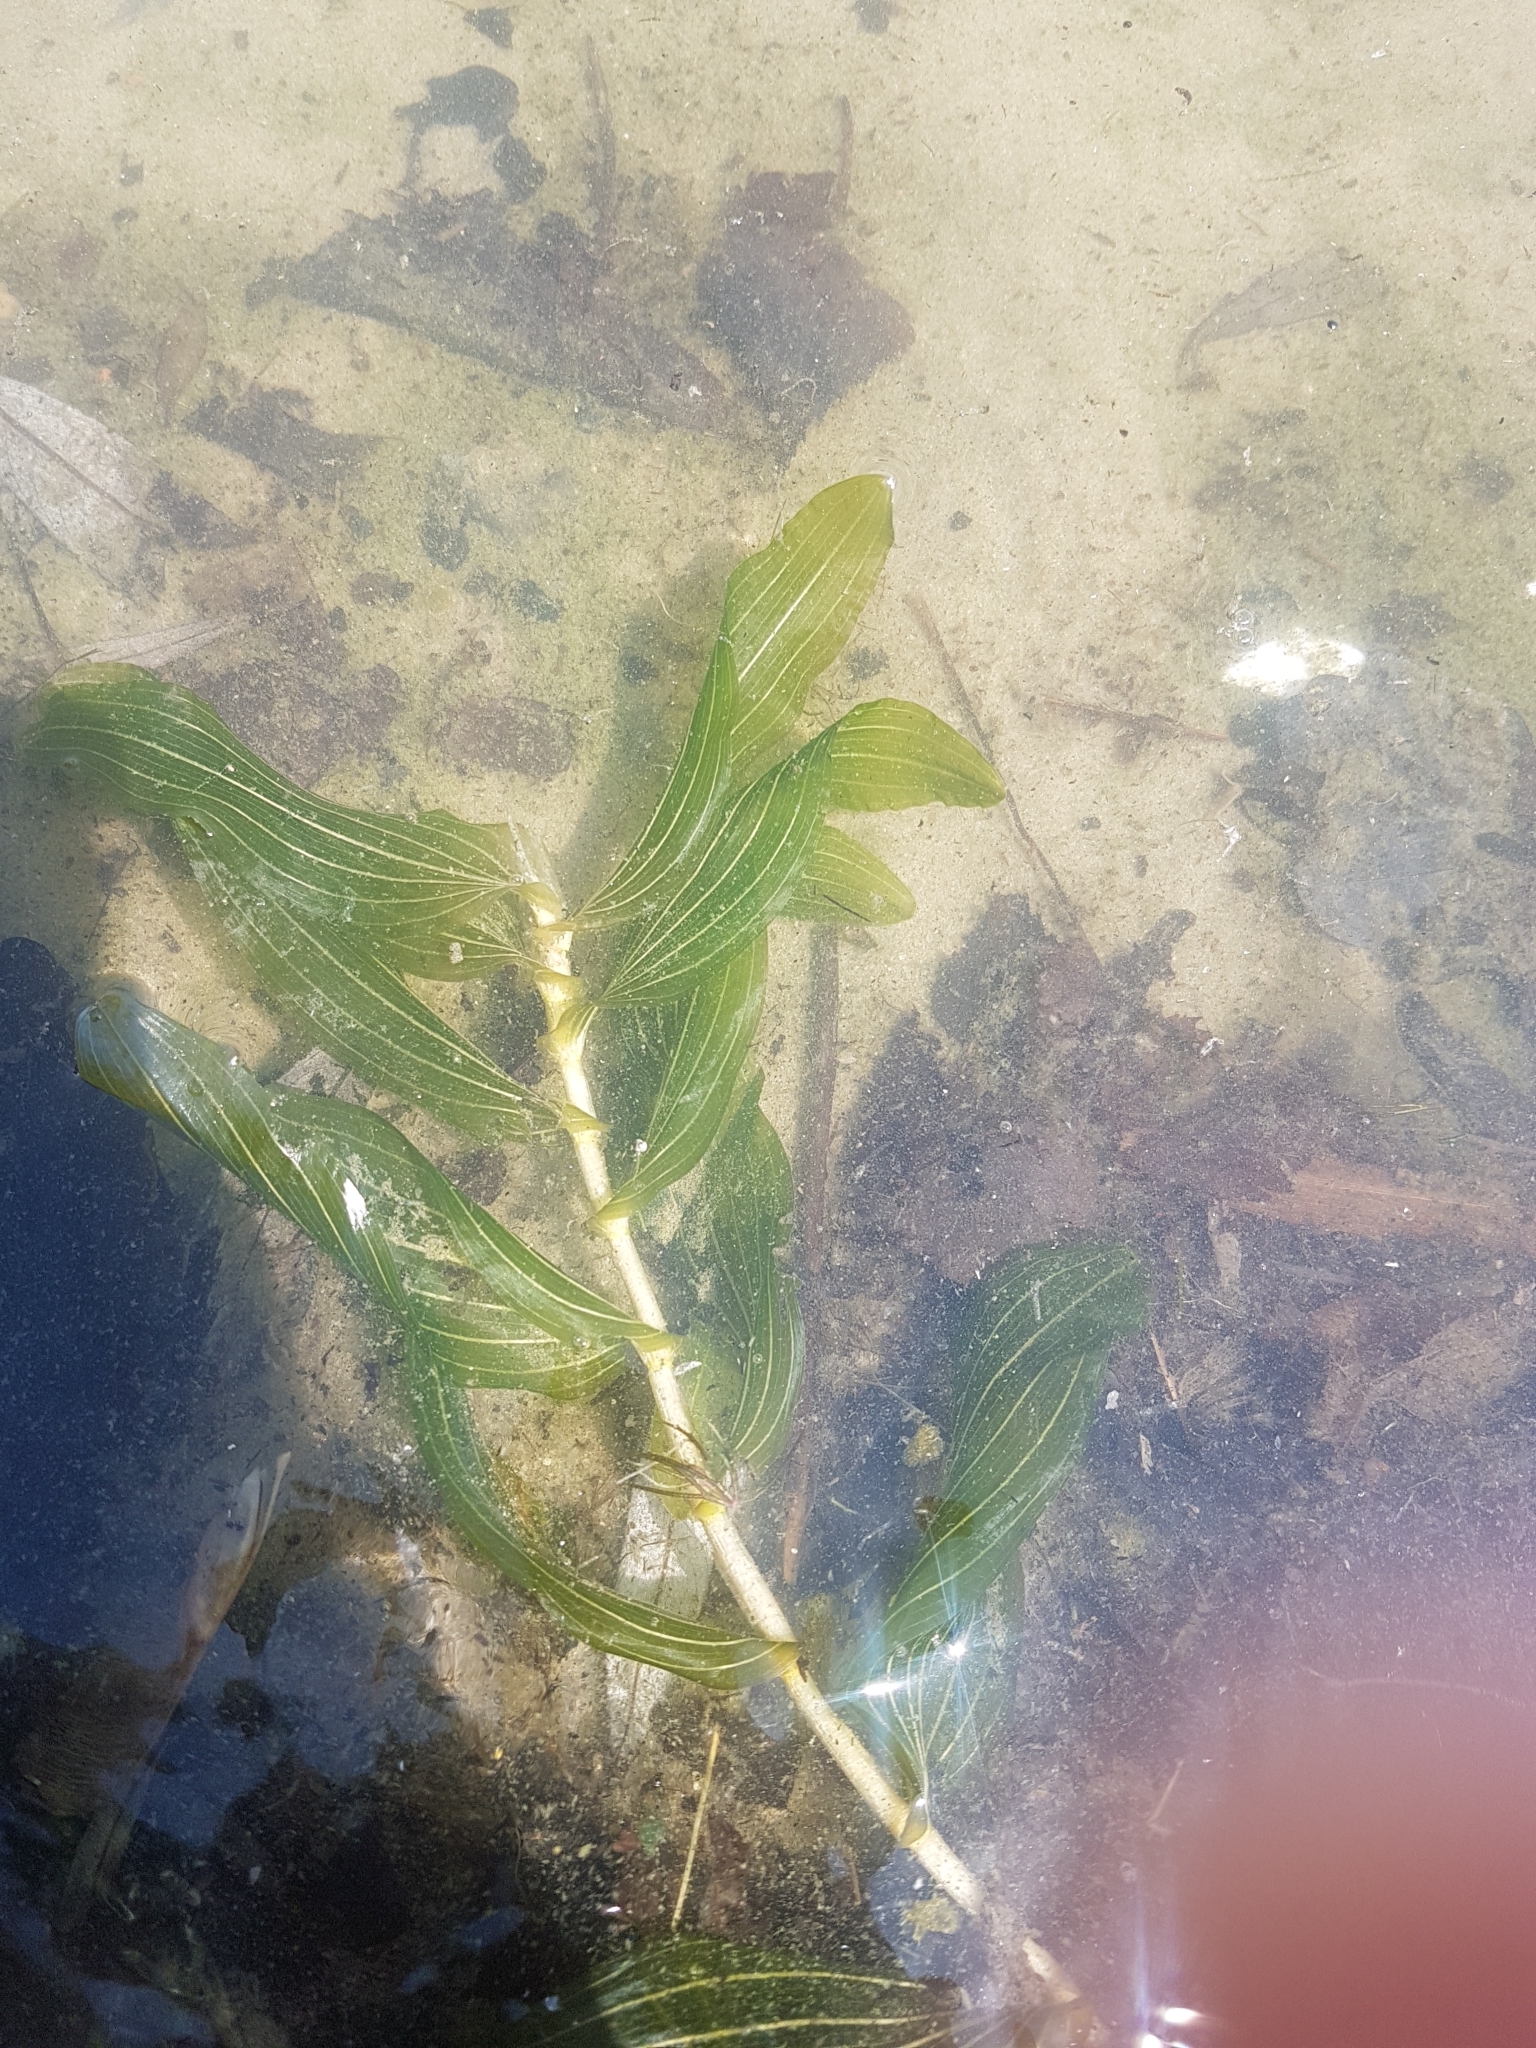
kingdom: Plantae
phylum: Tracheophyta
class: Liliopsida
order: Alismatales
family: Potamogetonaceae
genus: Potamogeton
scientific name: Potamogeton perfoliatus
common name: Perfoliate pondweed
